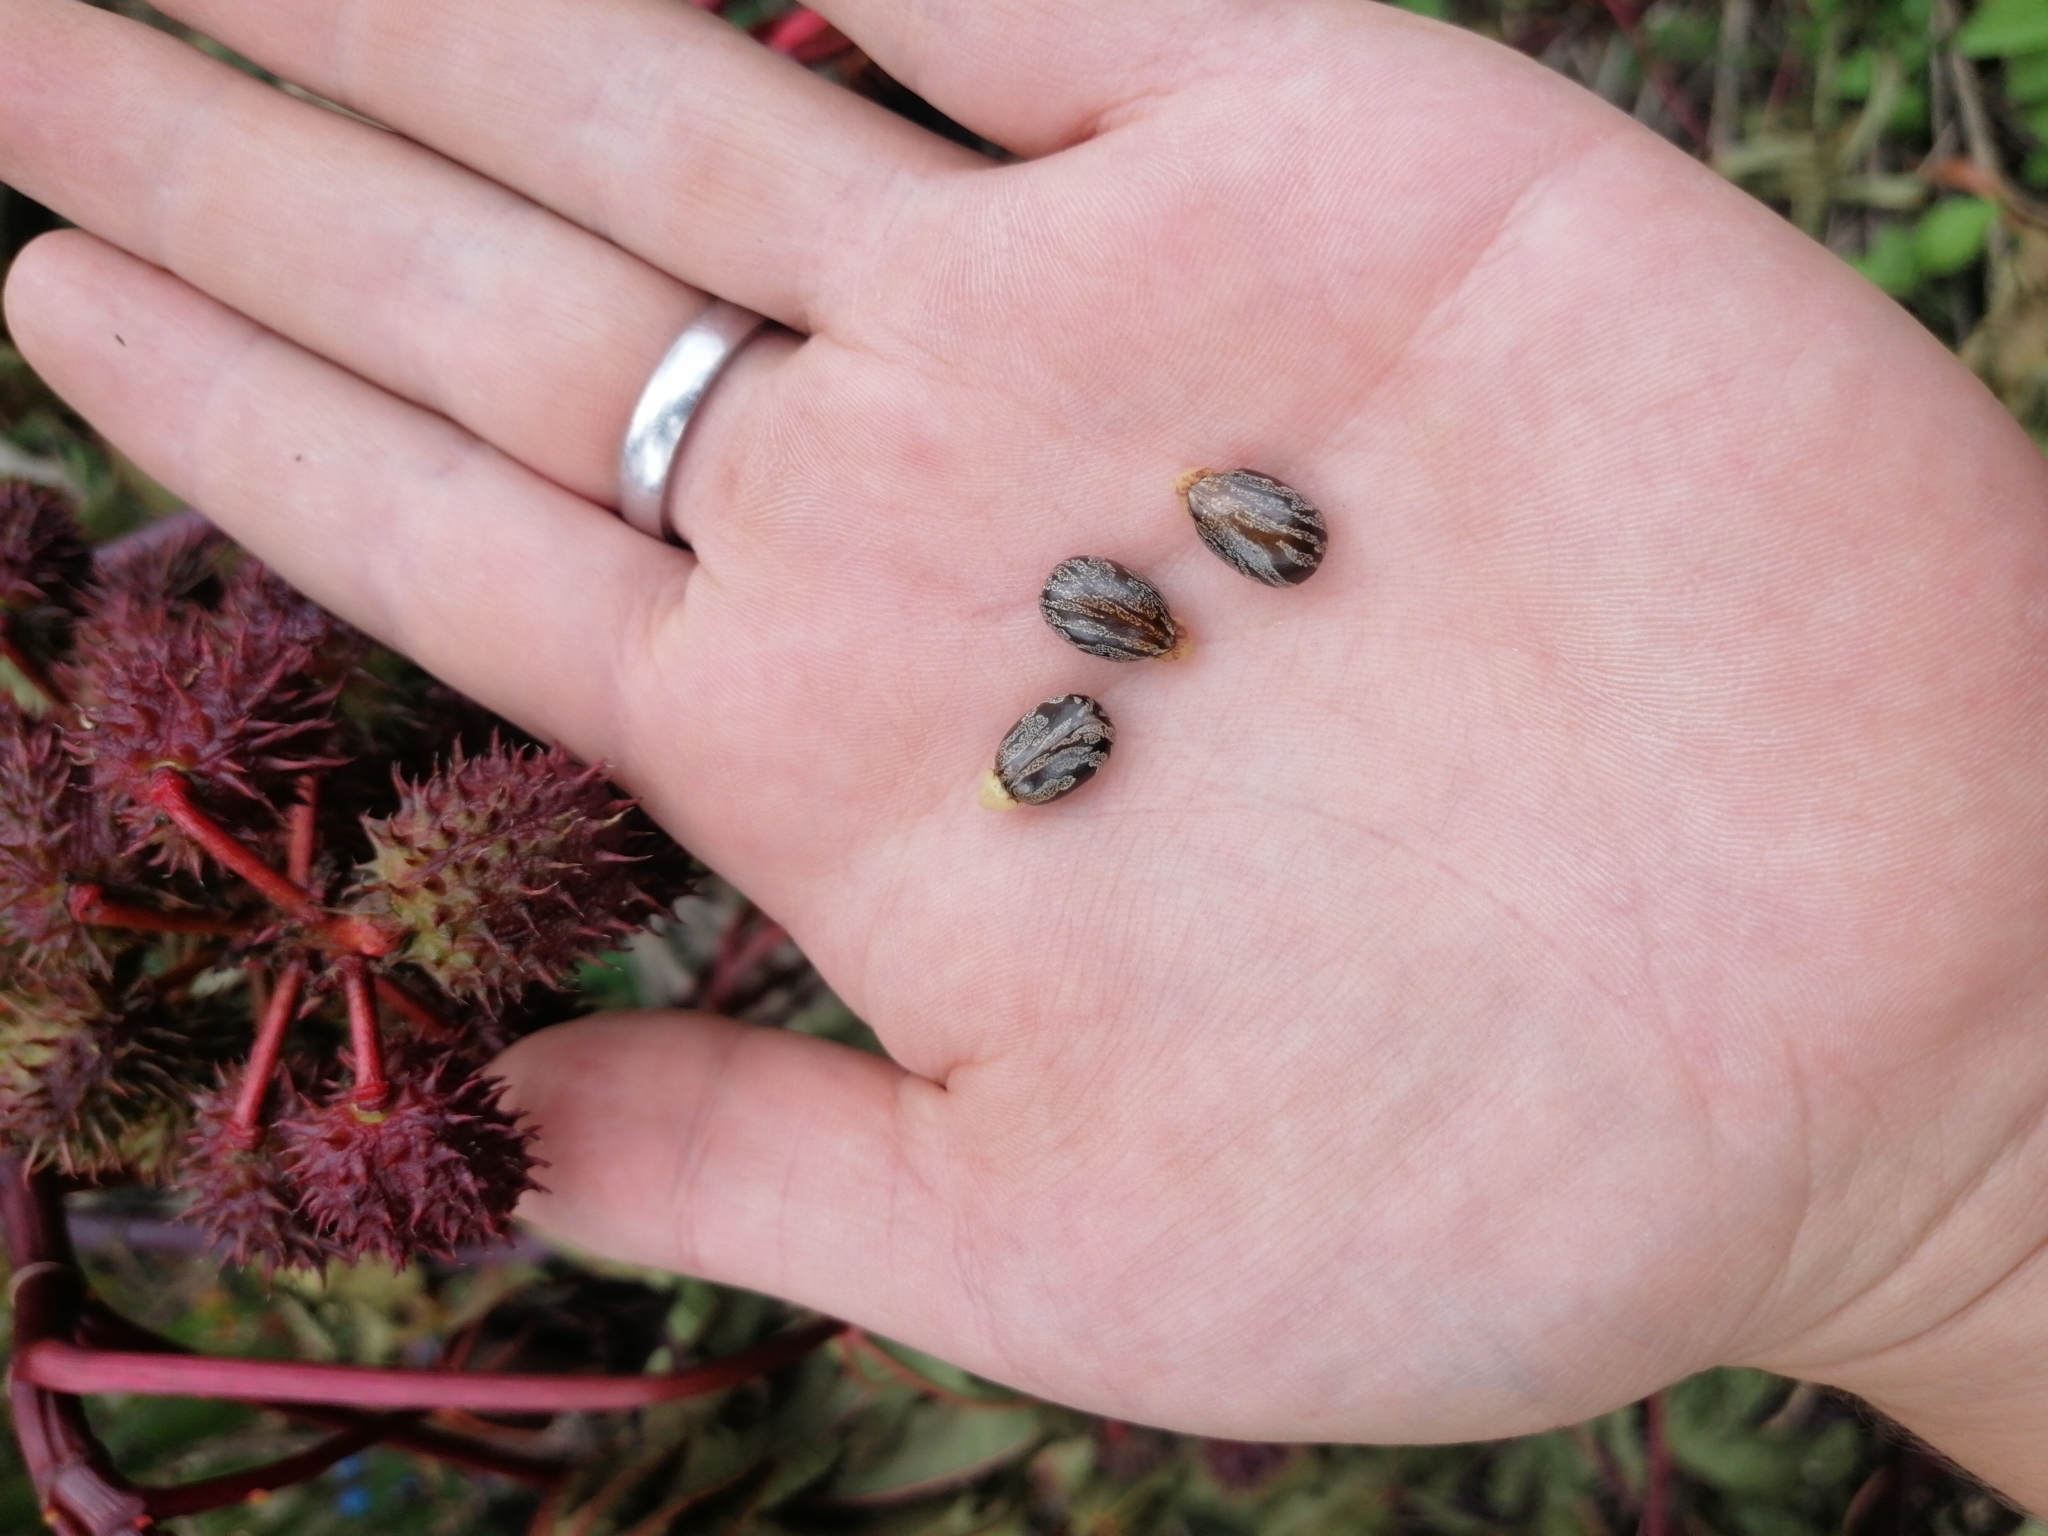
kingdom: Plantae
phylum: Tracheophyta
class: Magnoliopsida
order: Malpighiales
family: Euphorbiaceae
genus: Ricinus
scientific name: Ricinus communis
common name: Castor-oil-plant
